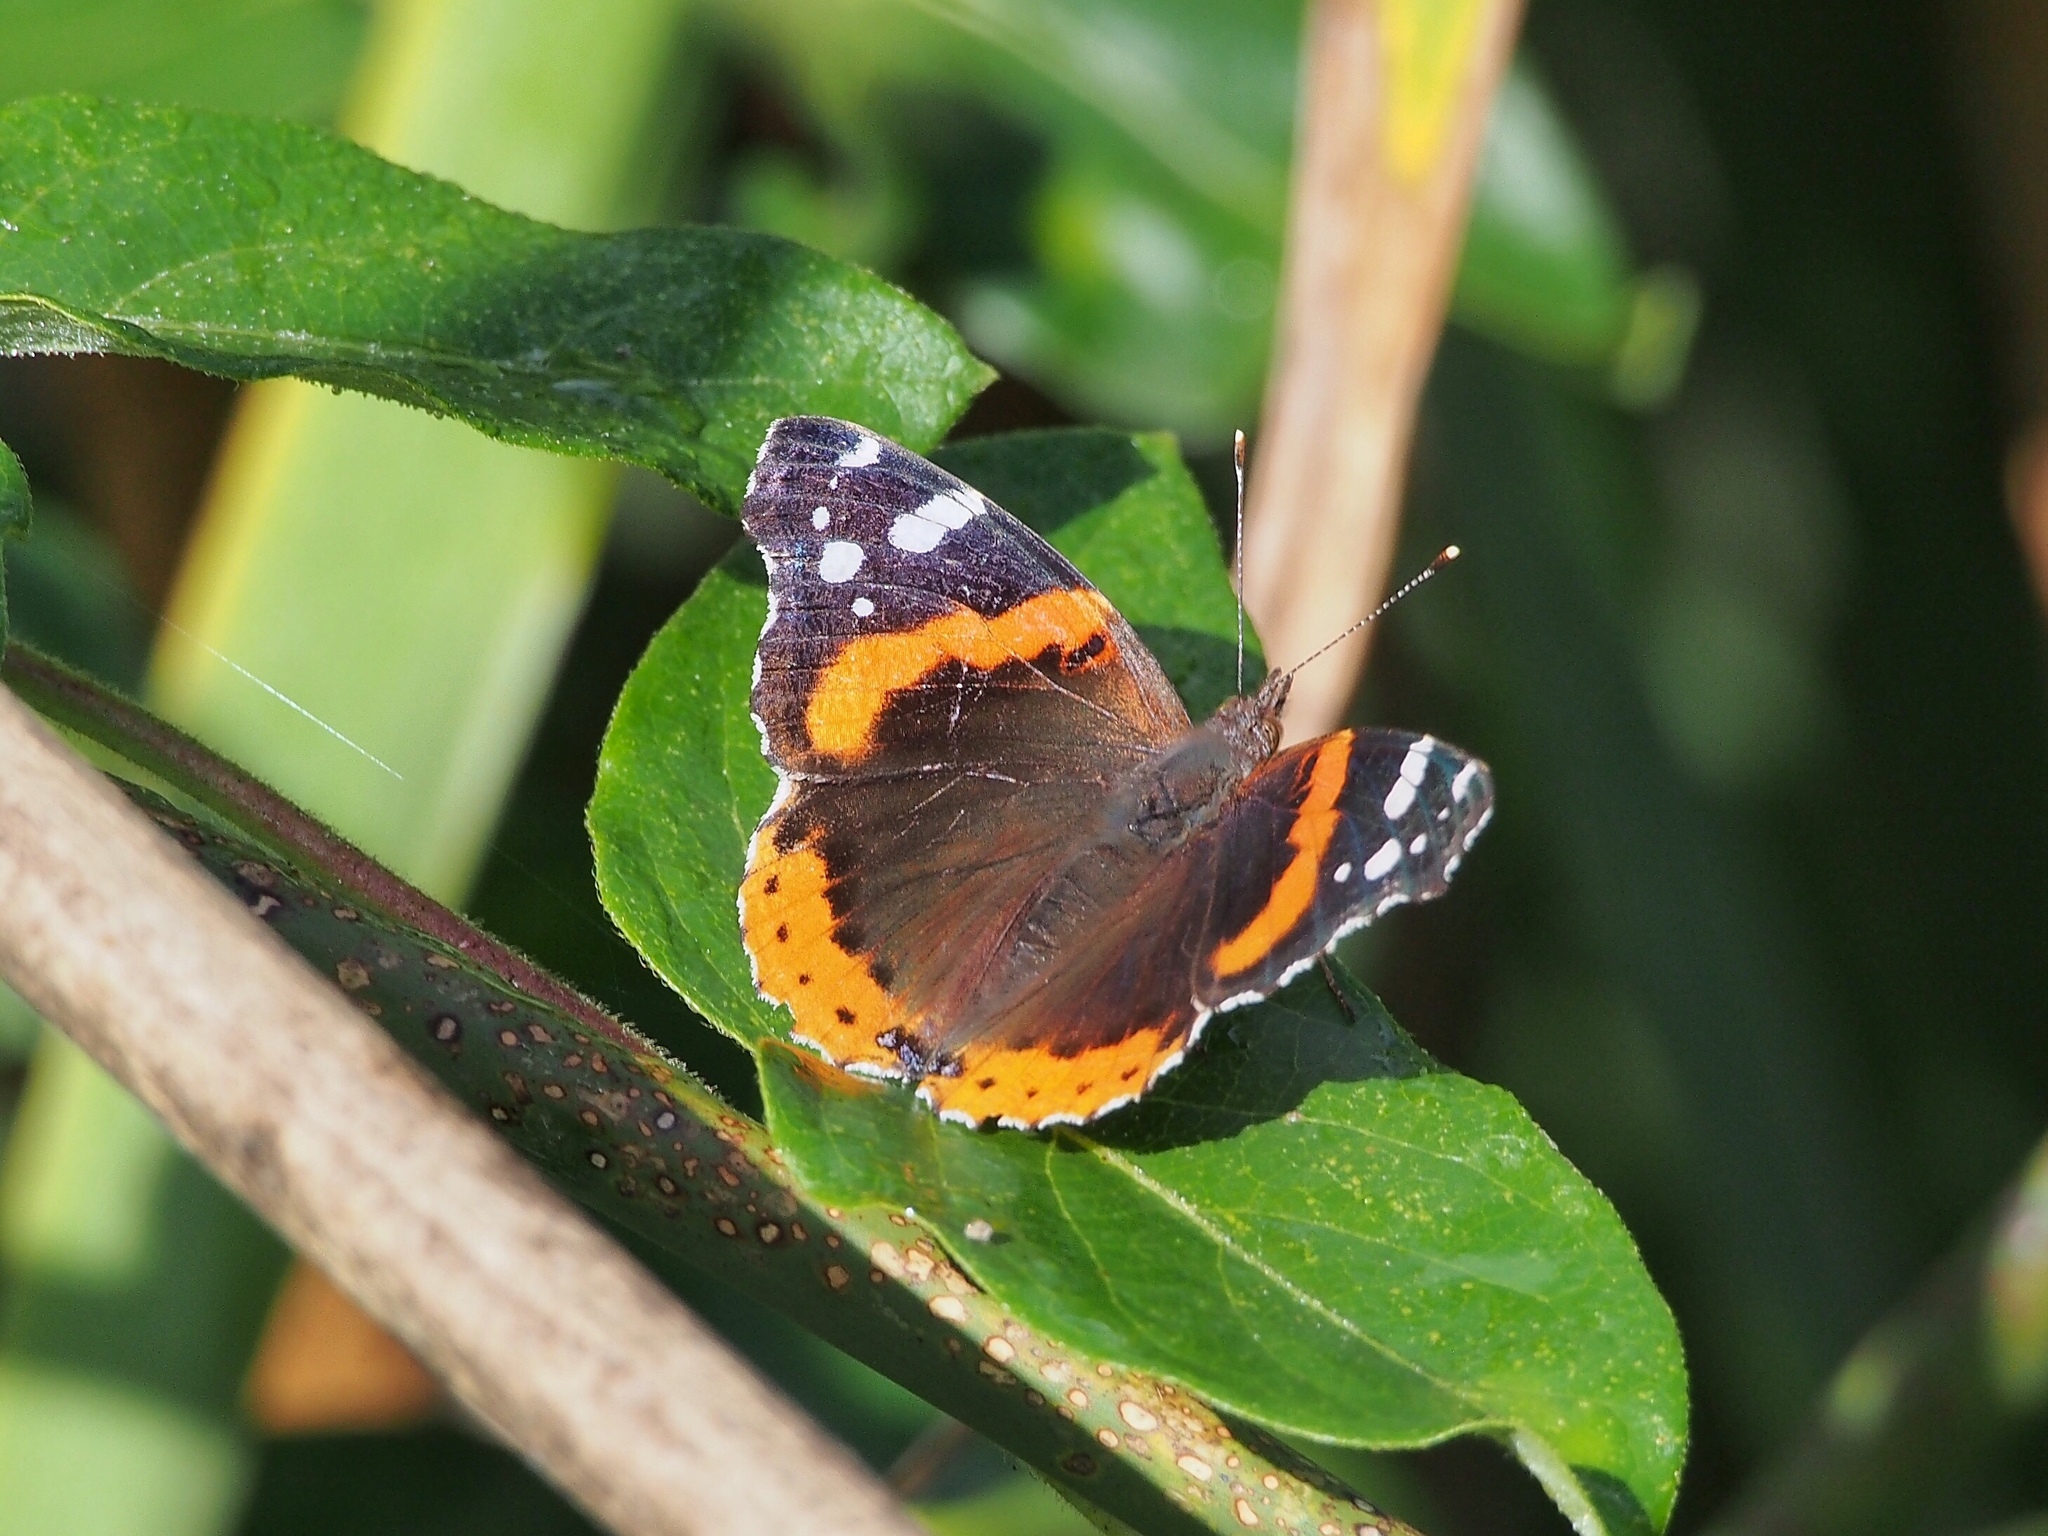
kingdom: Animalia
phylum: Arthropoda
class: Insecta
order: Lepidoptera
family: Nymphalidae
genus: Vanessa
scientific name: Vanessa atalanta
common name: Red admiral
